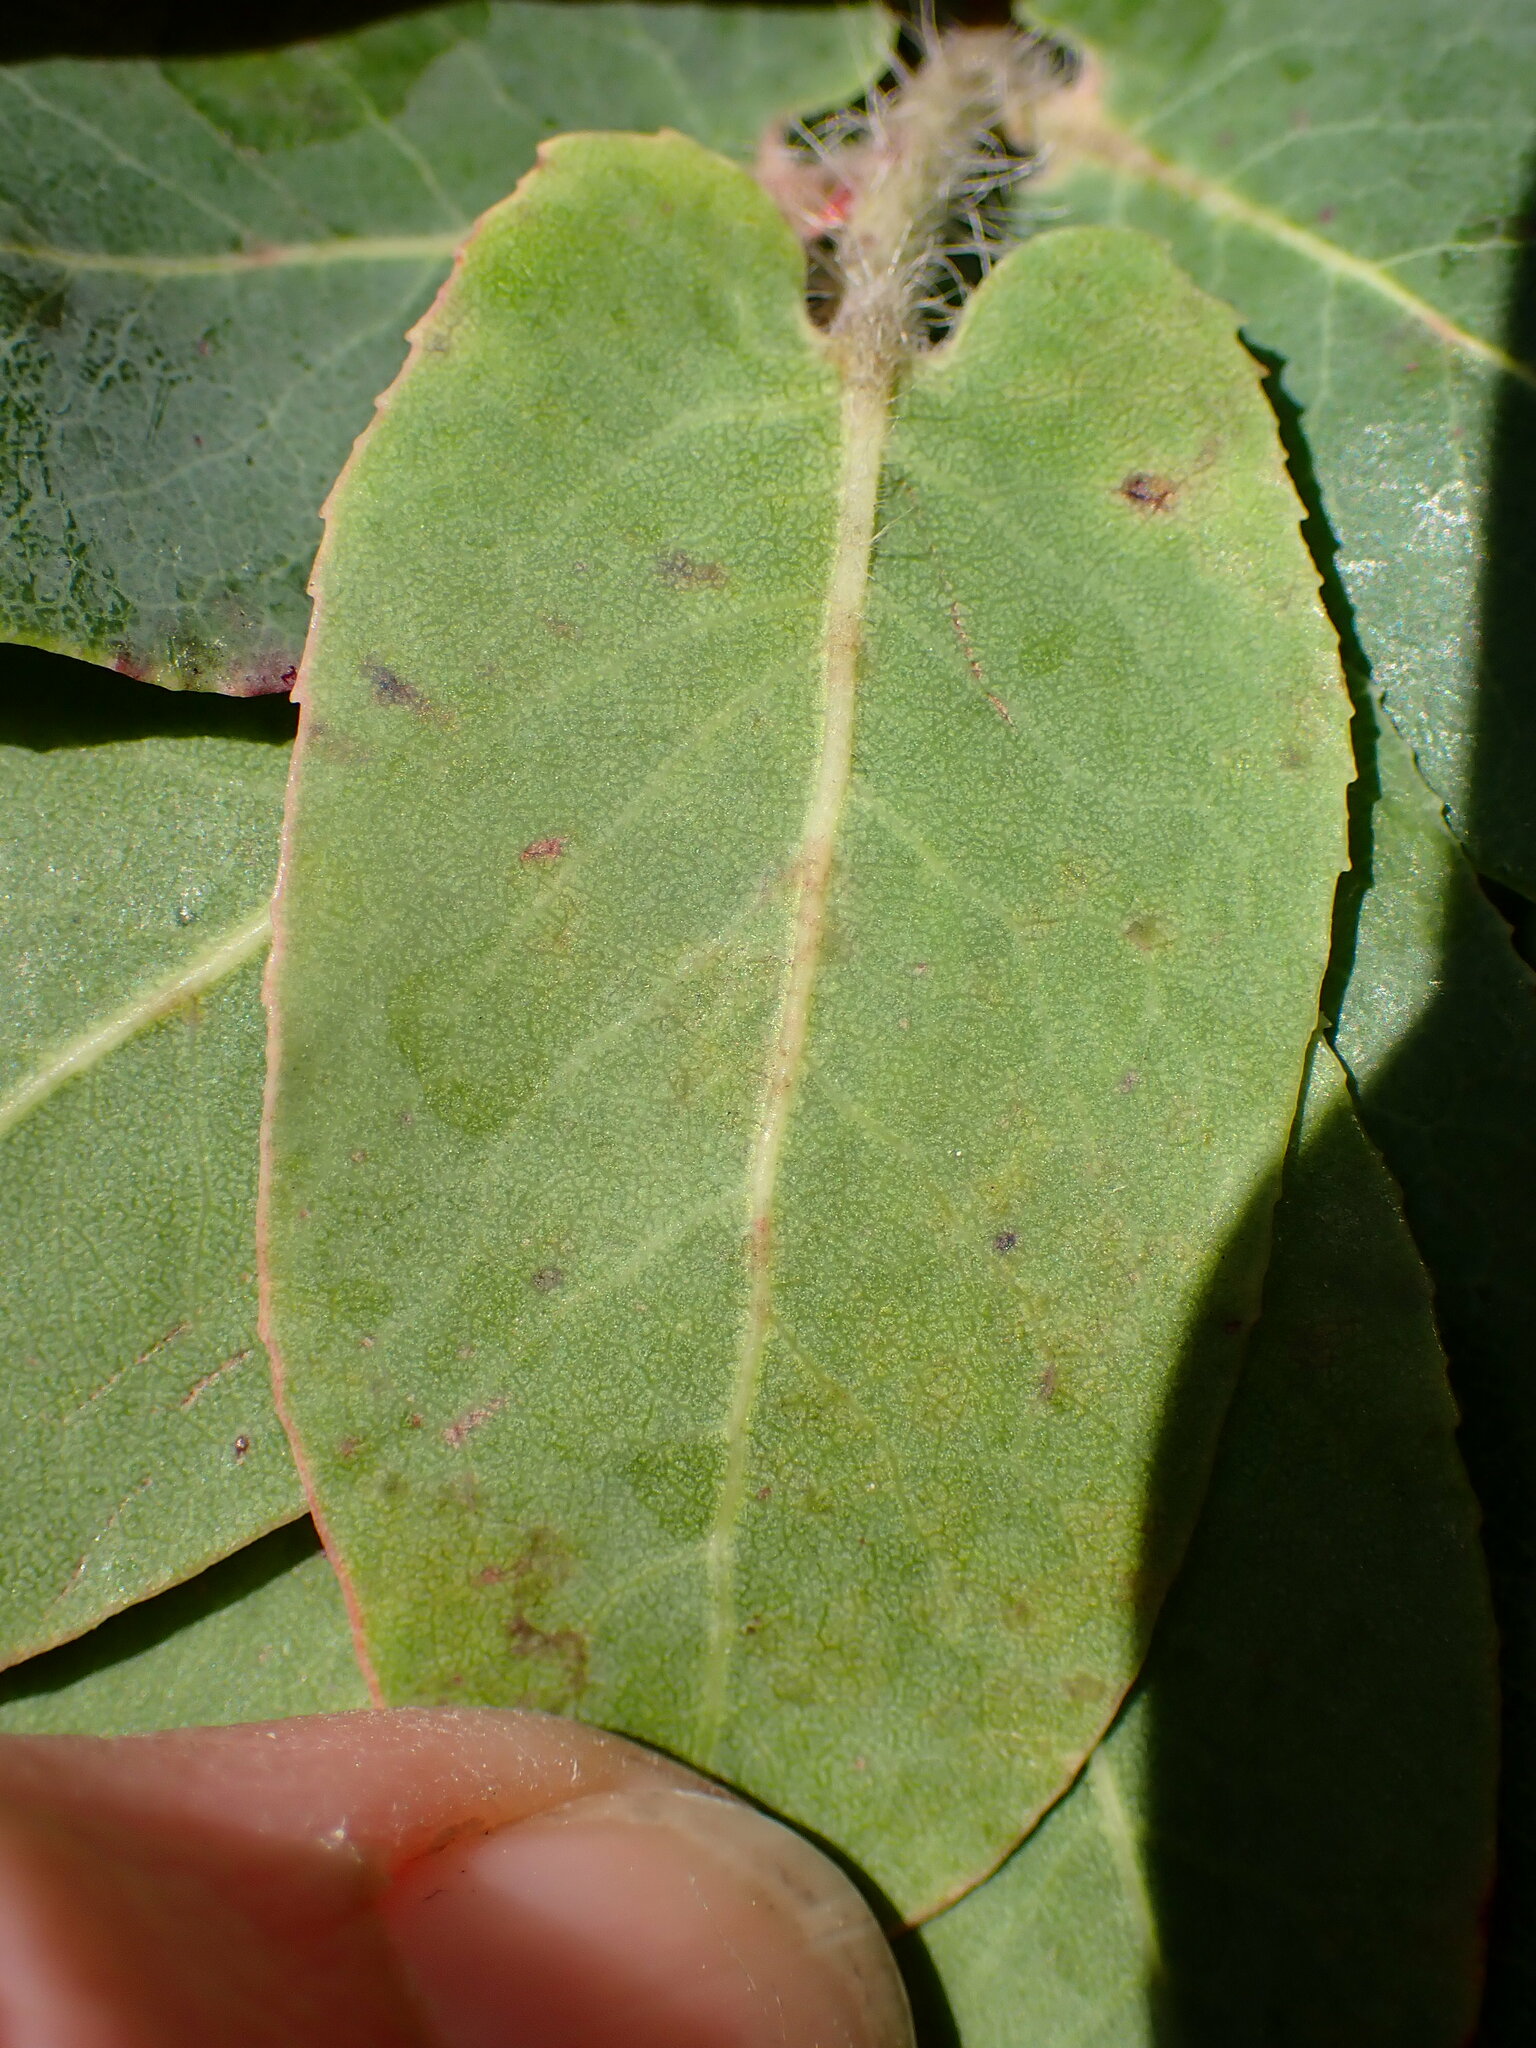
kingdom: Animalia
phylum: Arthropoda
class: Insecta
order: Lepidoptera
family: Gracillariidae
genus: Marmara
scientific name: Marmara arbutiella
